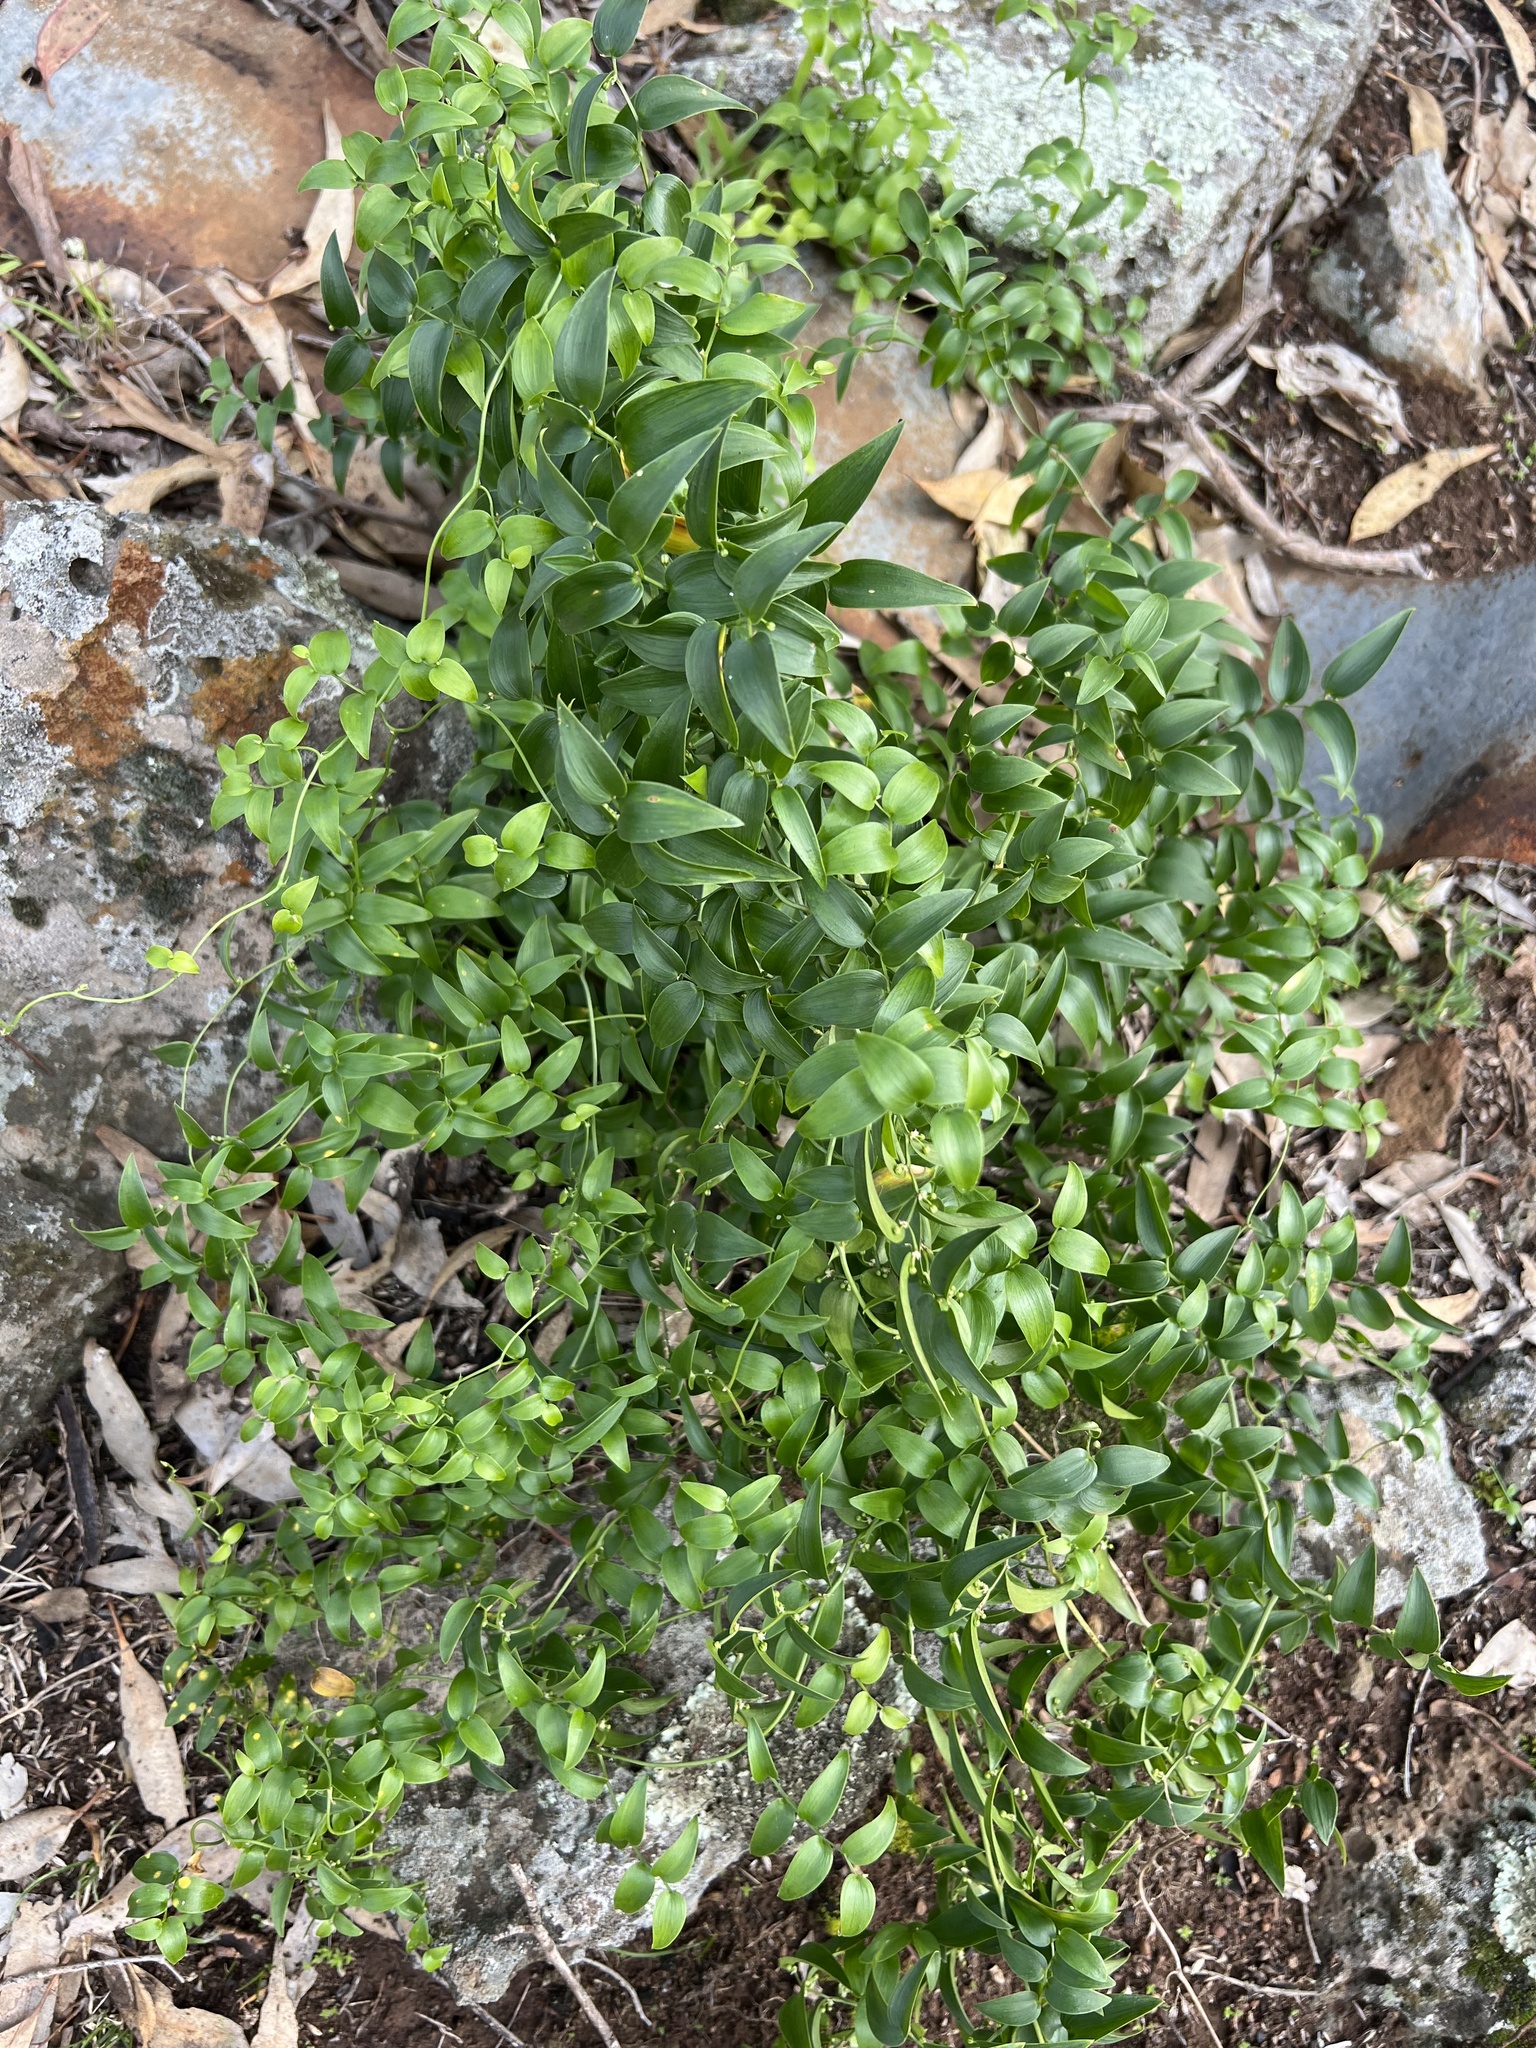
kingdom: Plantae
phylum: Tracheophyta
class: Liliopsida
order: Asparagales
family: Asparagaceae
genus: Asparagus
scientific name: Asparagus asparagoides
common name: African asparagus fern
